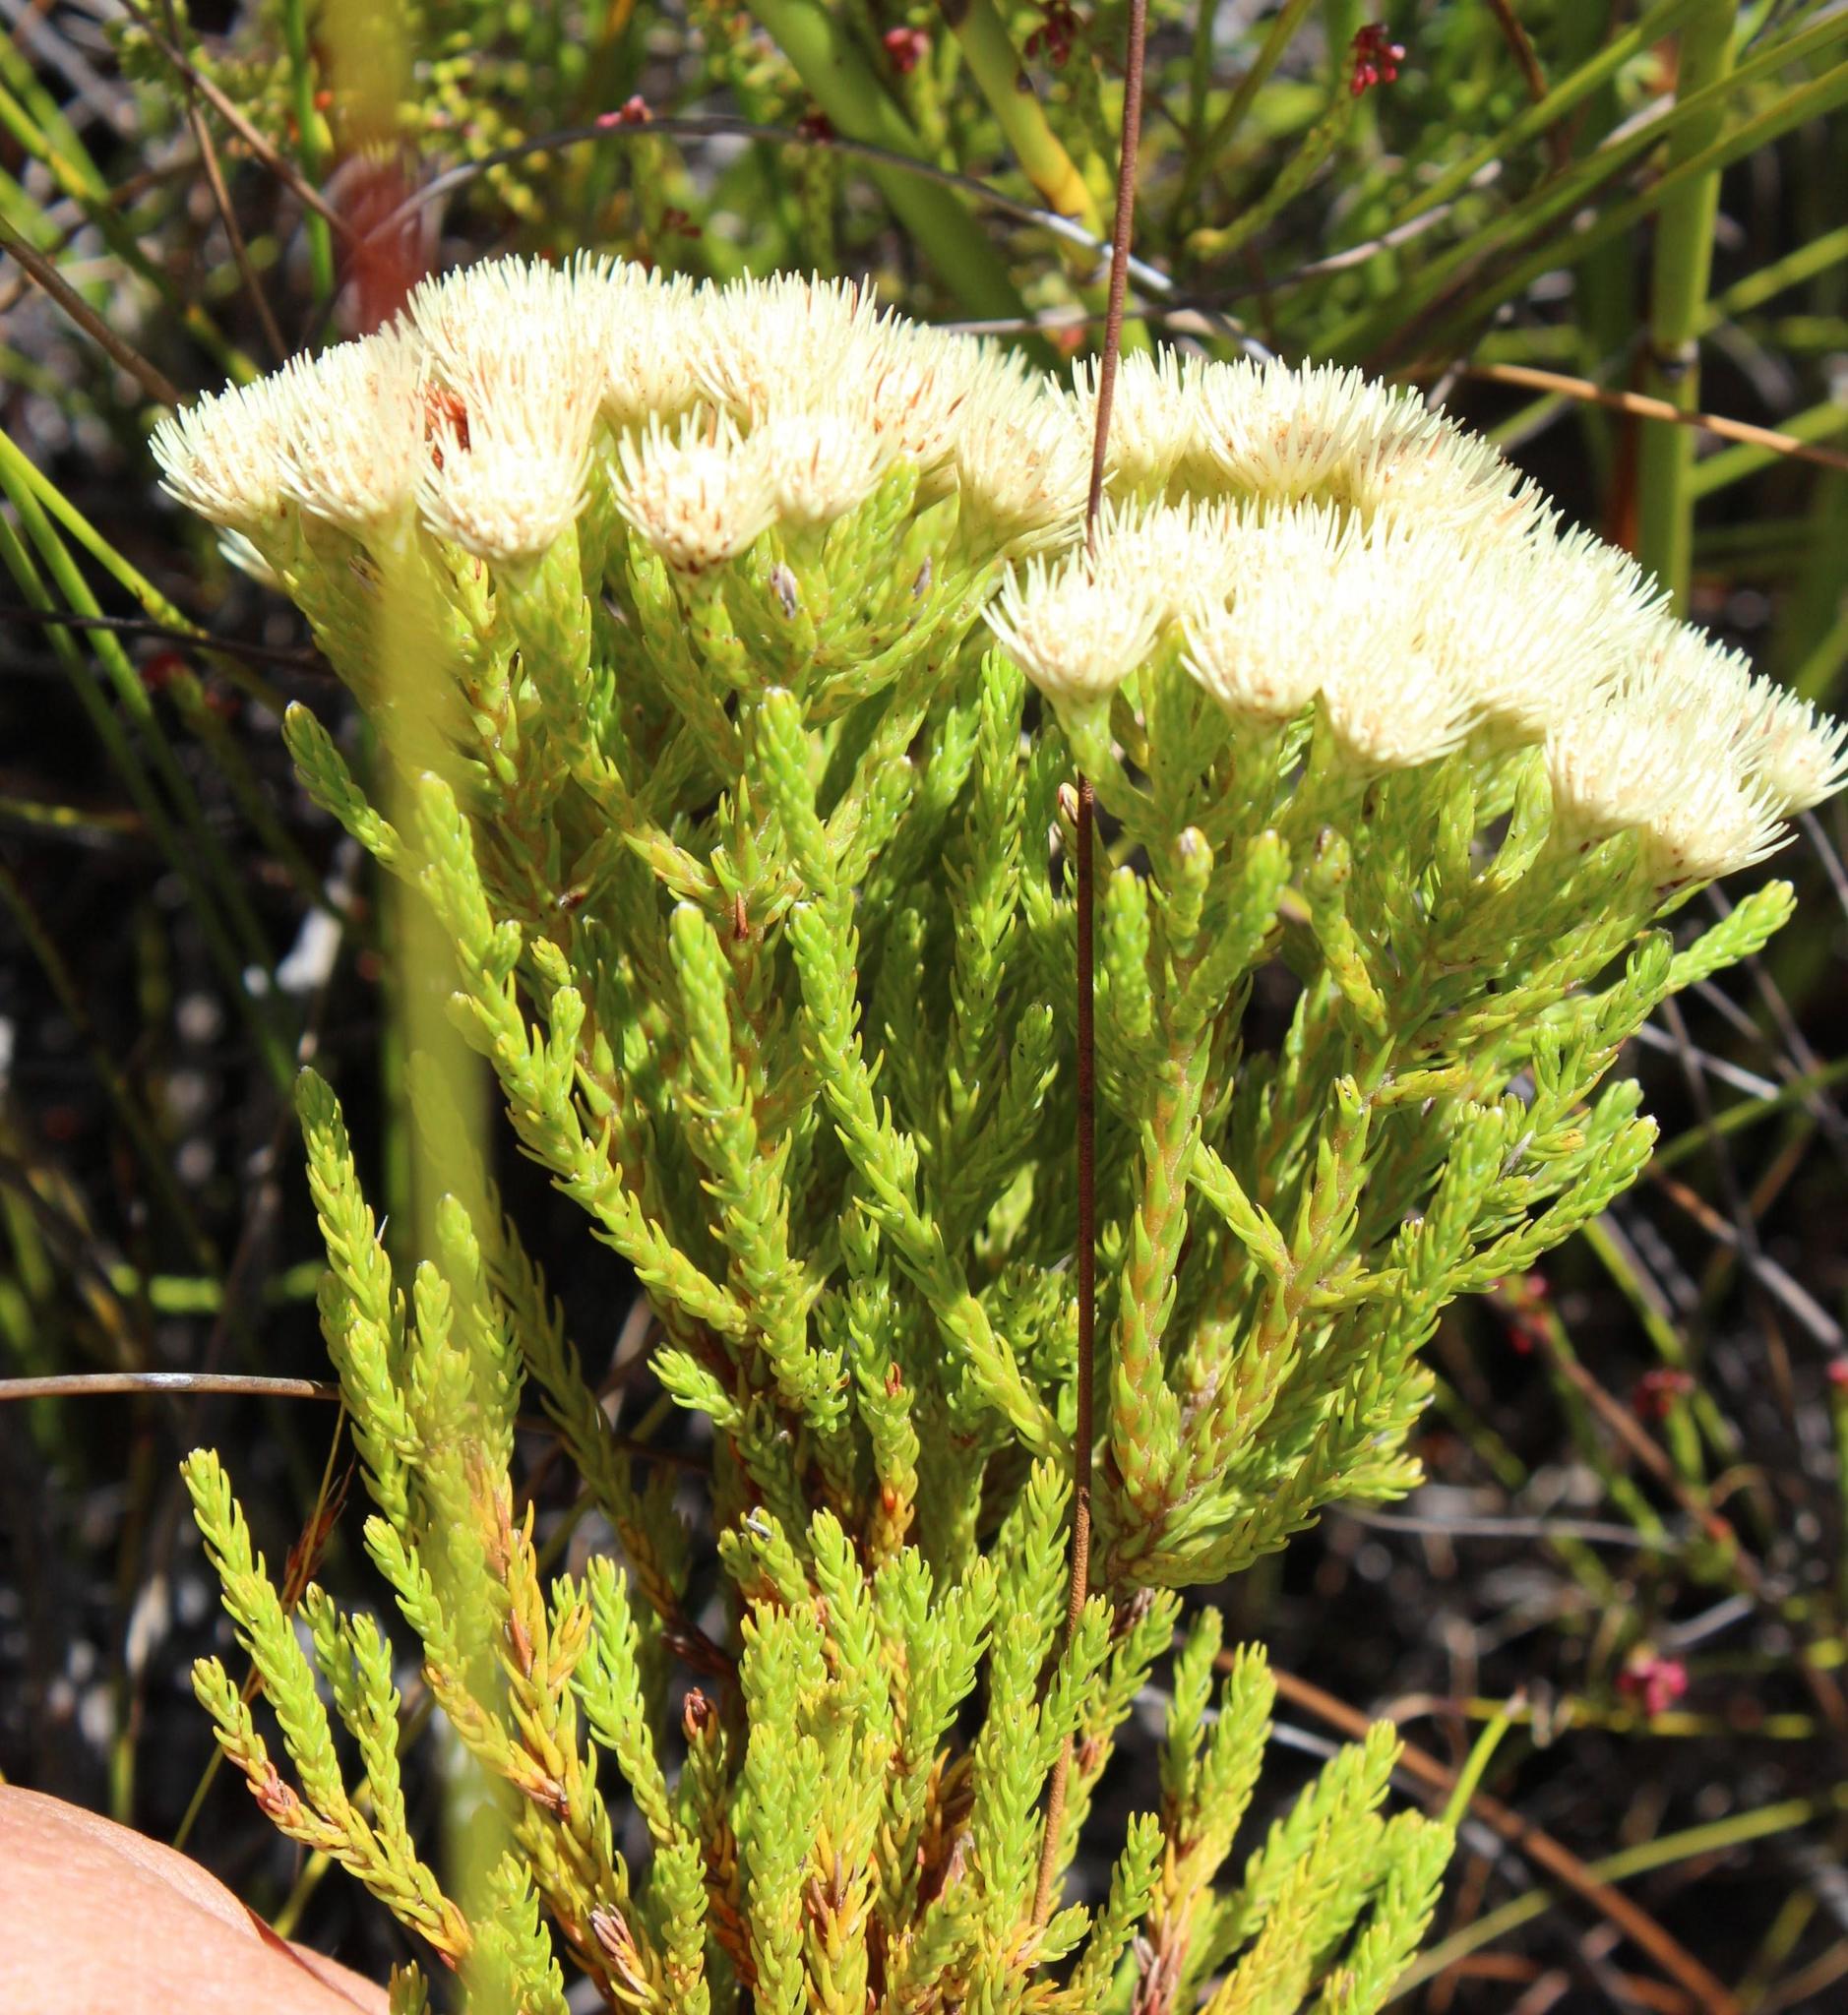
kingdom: Plantae
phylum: Tracheophyta
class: Magnoliopsida
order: Bruniales
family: Bruniaceae
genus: Brunia
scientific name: Brunia paleacea
